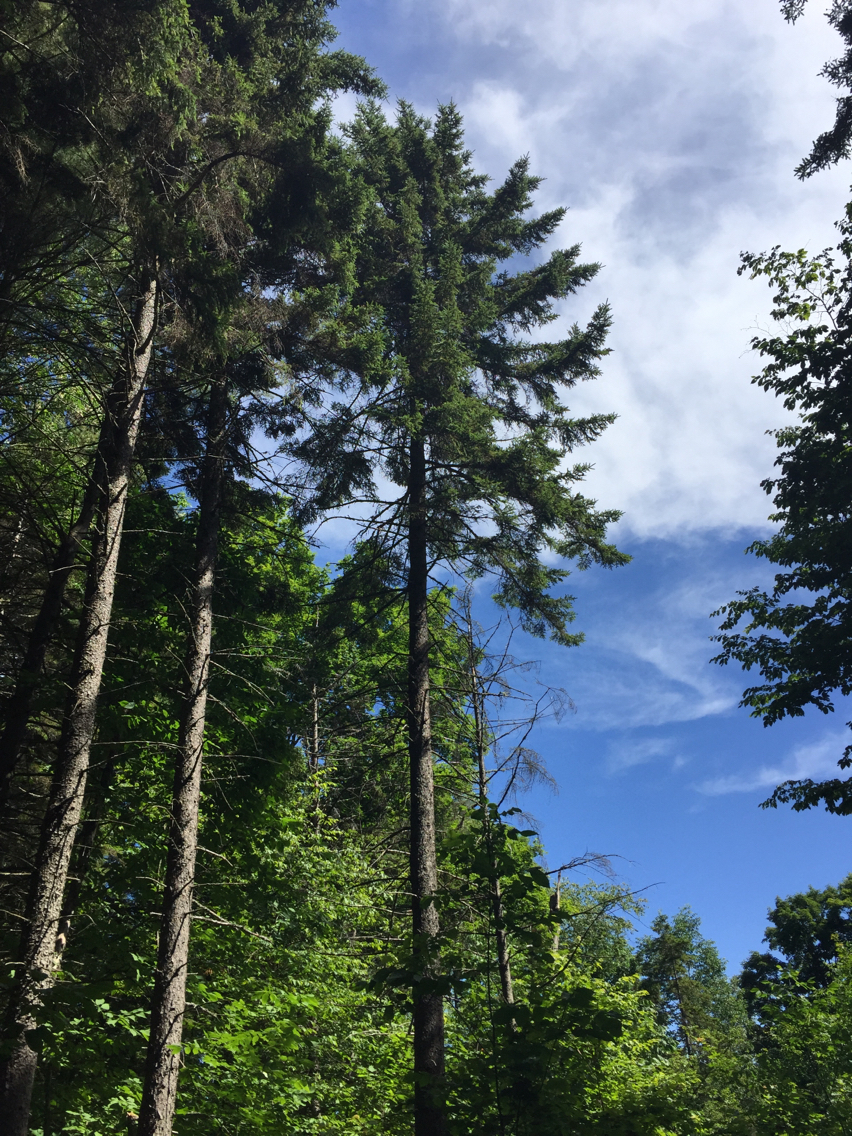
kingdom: Plantae
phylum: Tracheophyta
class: Pinopsida
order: Pinales
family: Pinaceae
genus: Picea
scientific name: Picea rubens
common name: Red spruce
